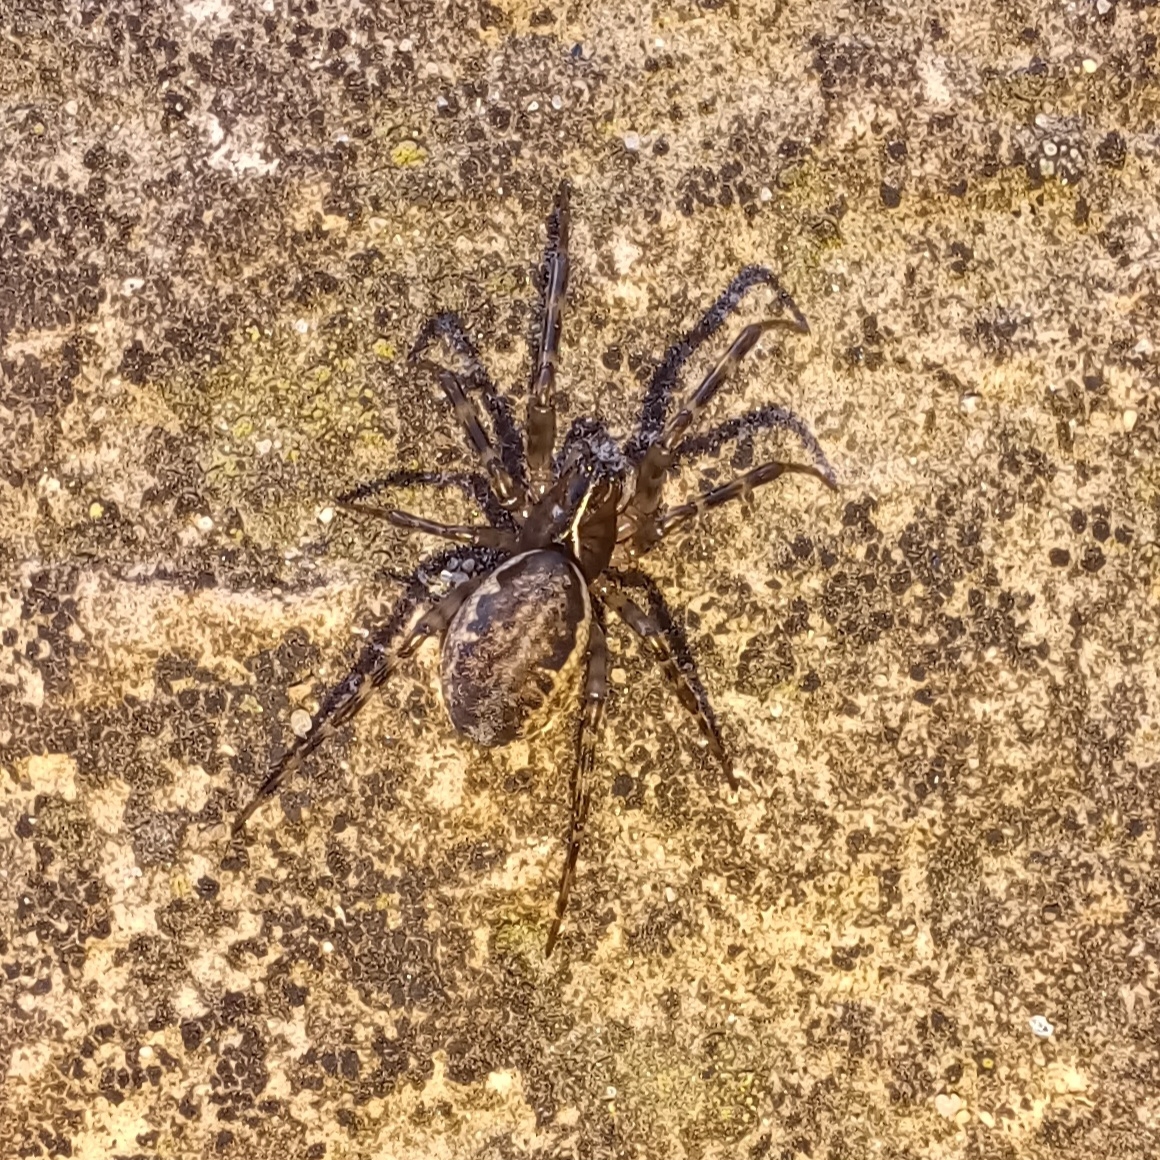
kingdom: Animalia
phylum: Arthropoda
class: Arachnida
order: Araneae
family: Linyphiidae
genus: Neriene
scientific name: Neriene montana
